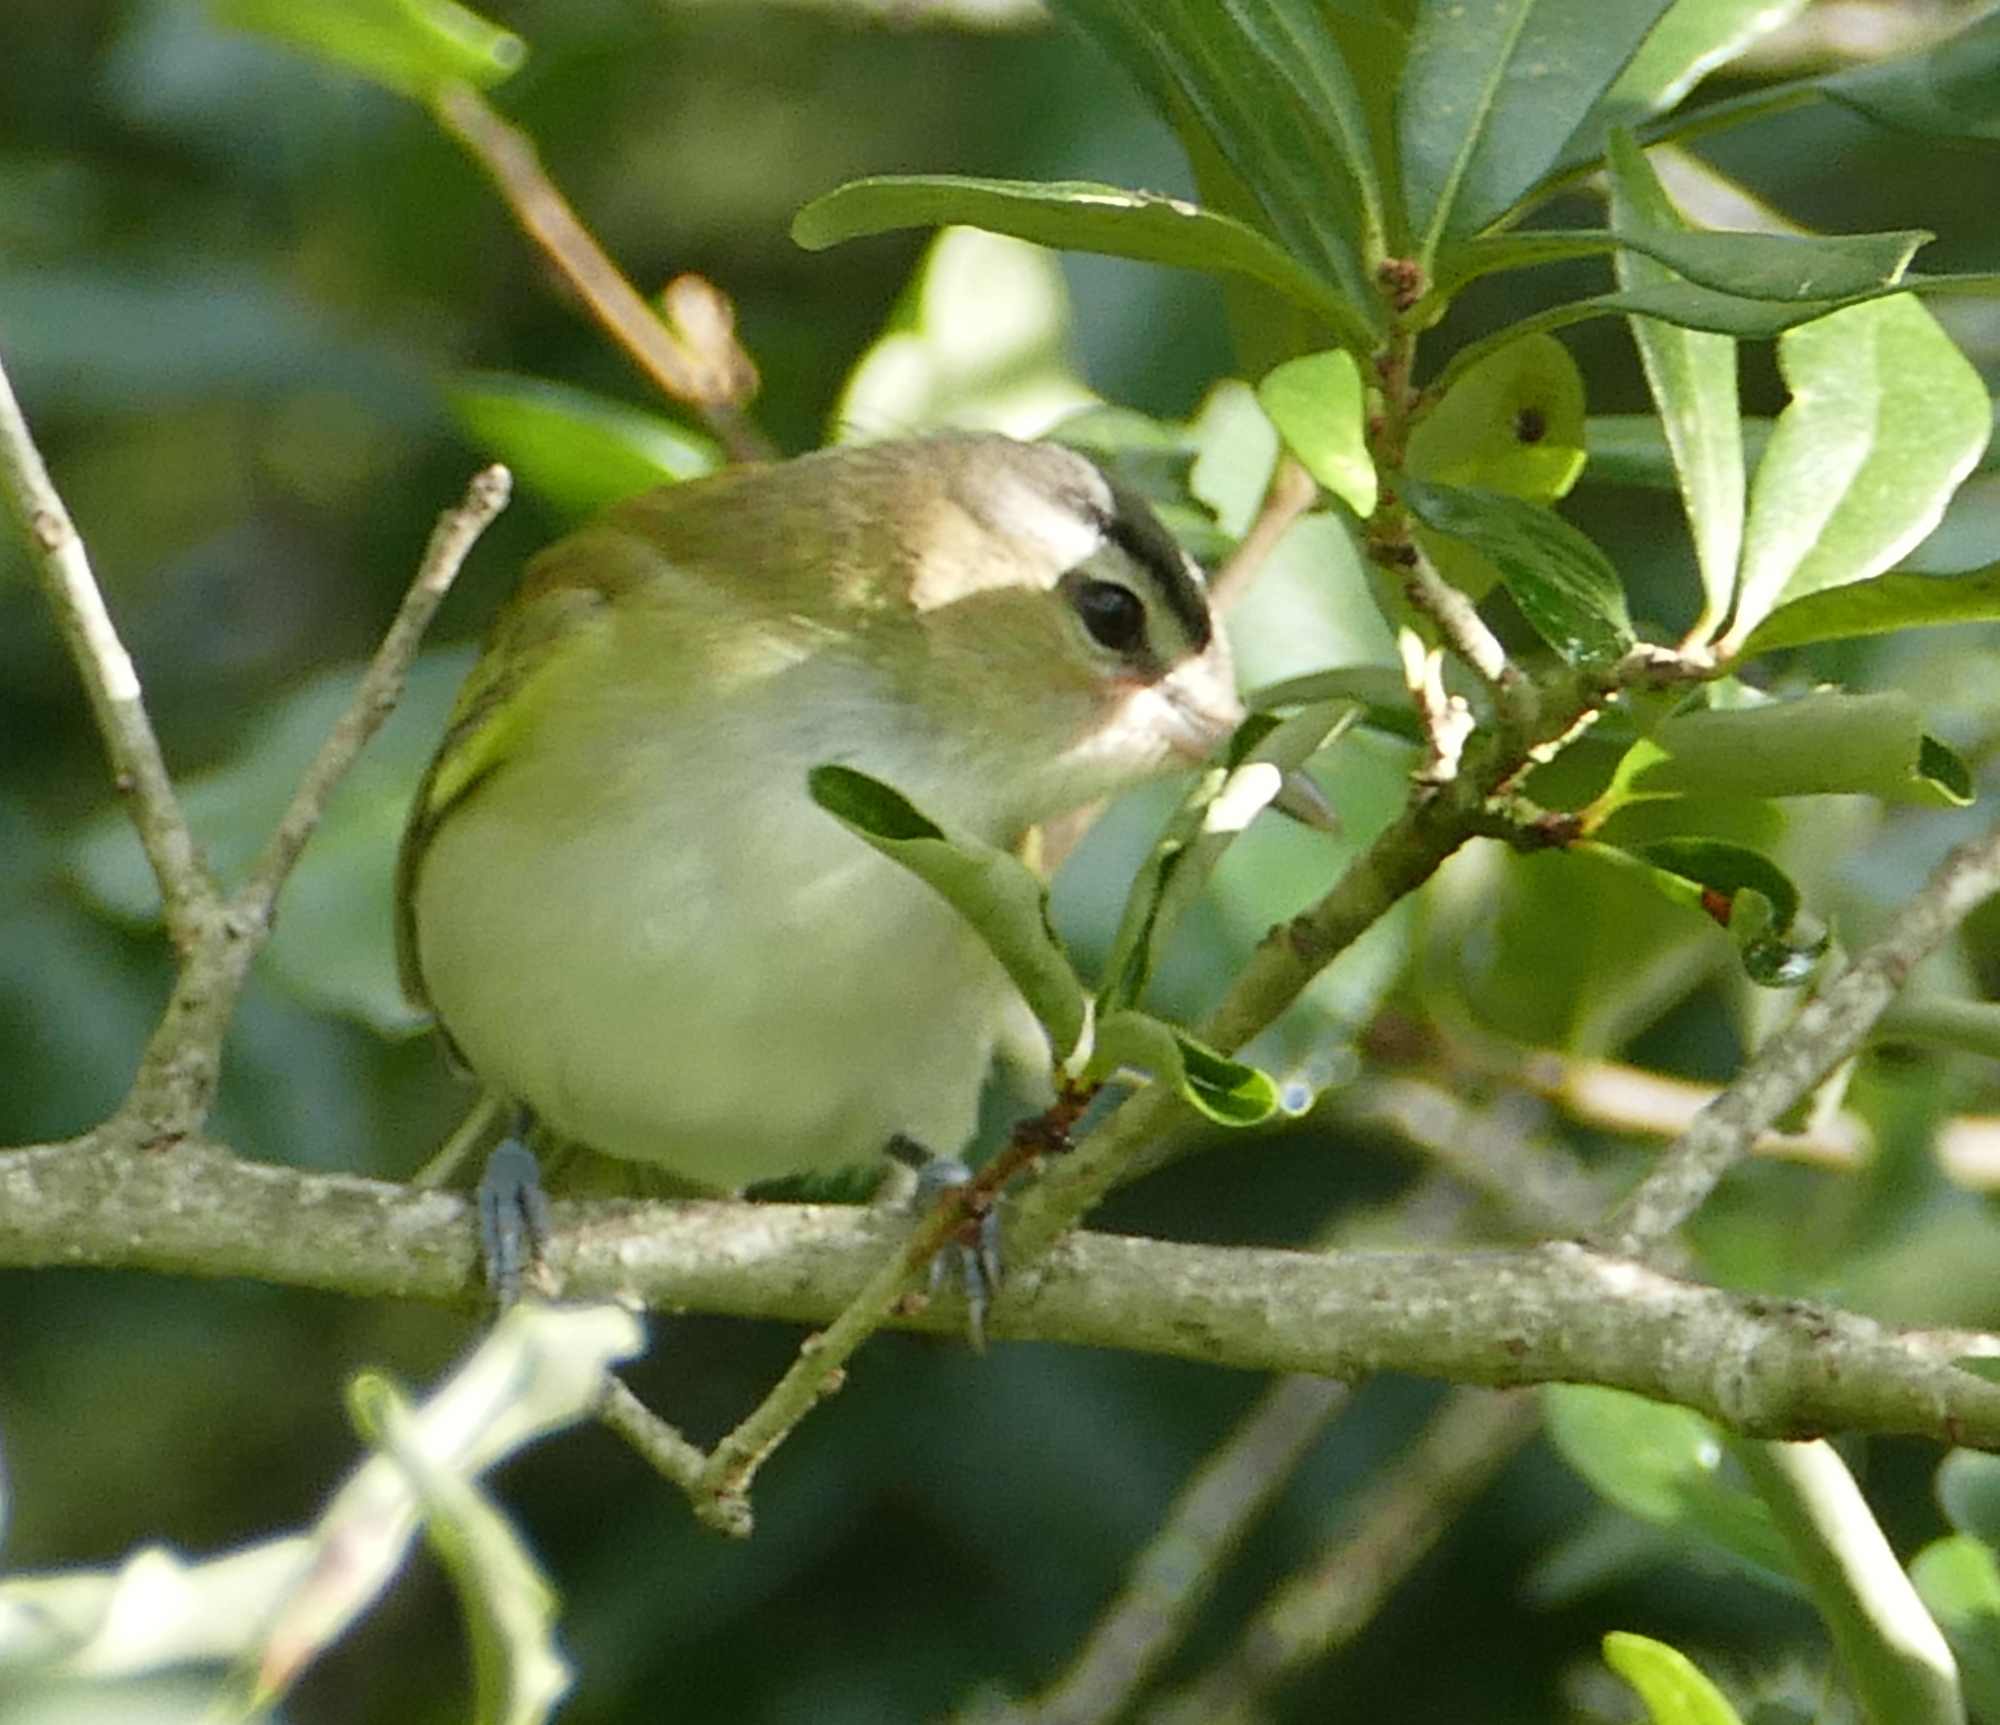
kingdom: Animalia
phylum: Chordata
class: Aves
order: Passeriformes
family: Vireonidae
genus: Vireo
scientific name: Vireo olivaceus
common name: Red-eyed vireo
